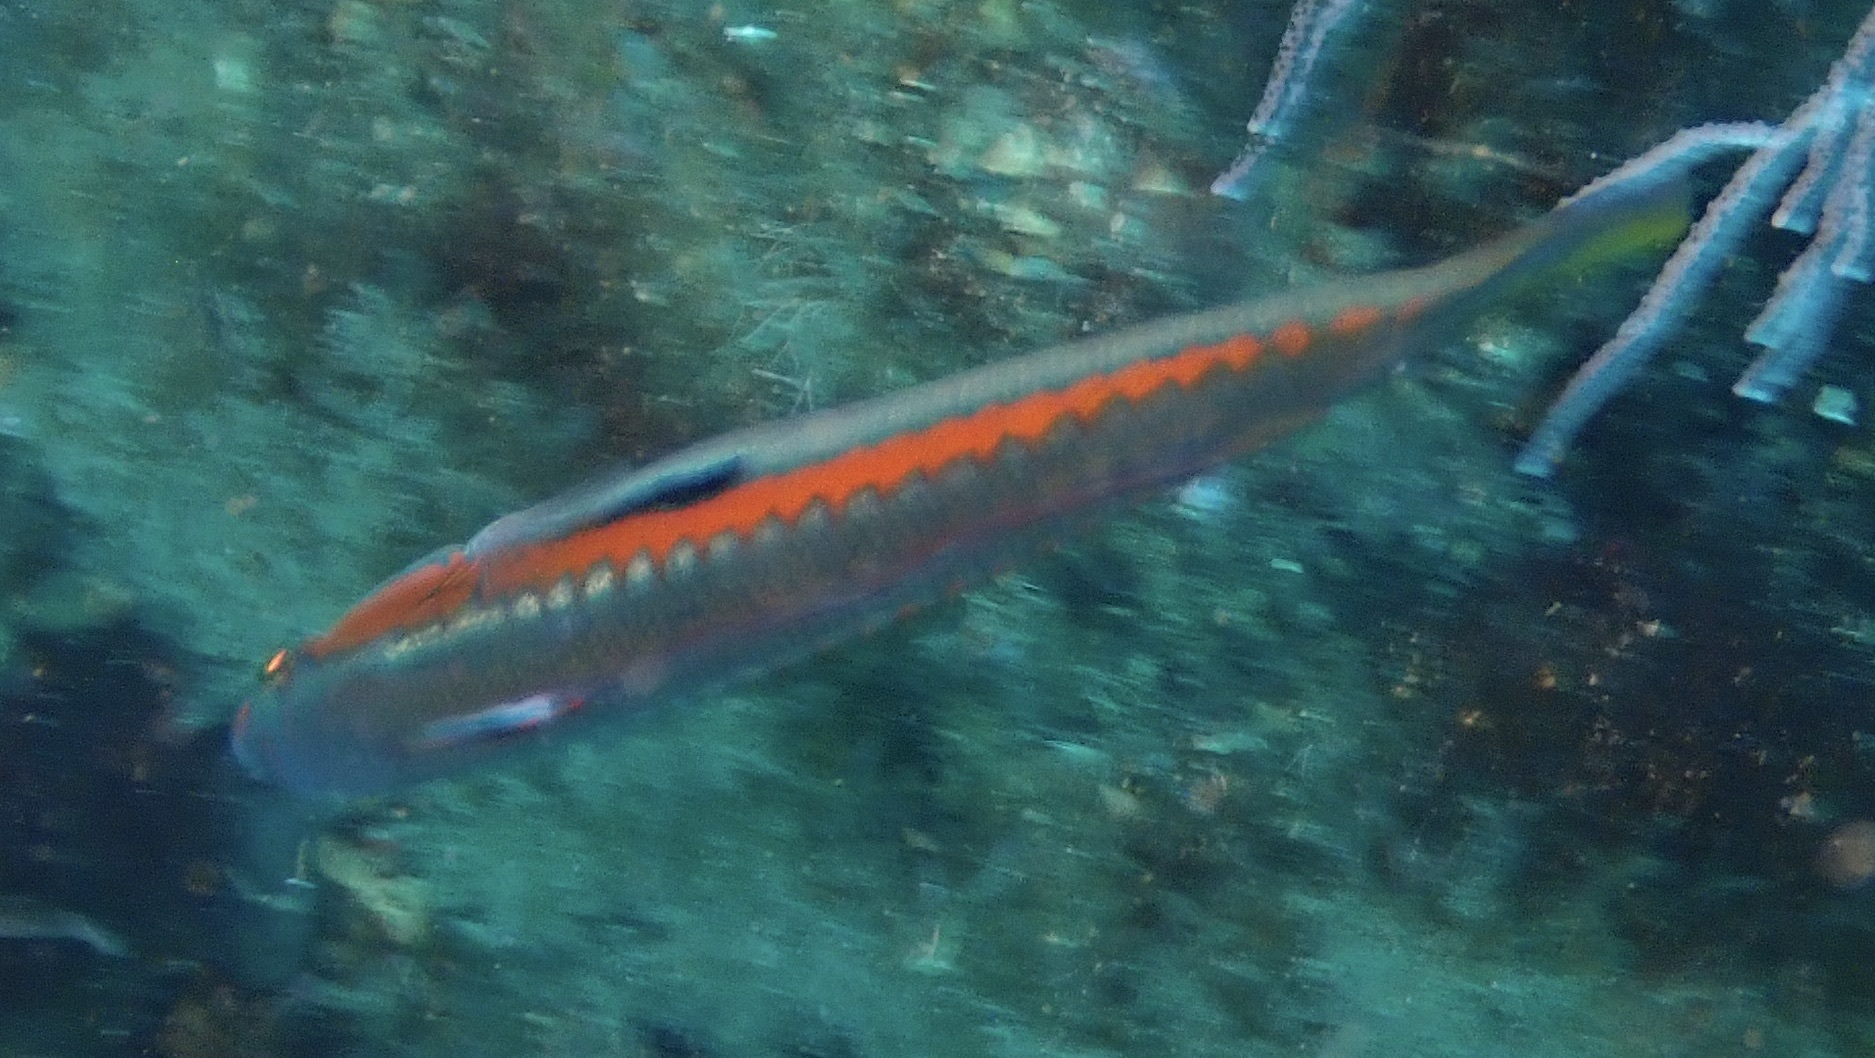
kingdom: Animalia
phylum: Chordata
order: Perciformes
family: Labridae
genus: Coris
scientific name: Coris julis
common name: Rainbow wrasse
